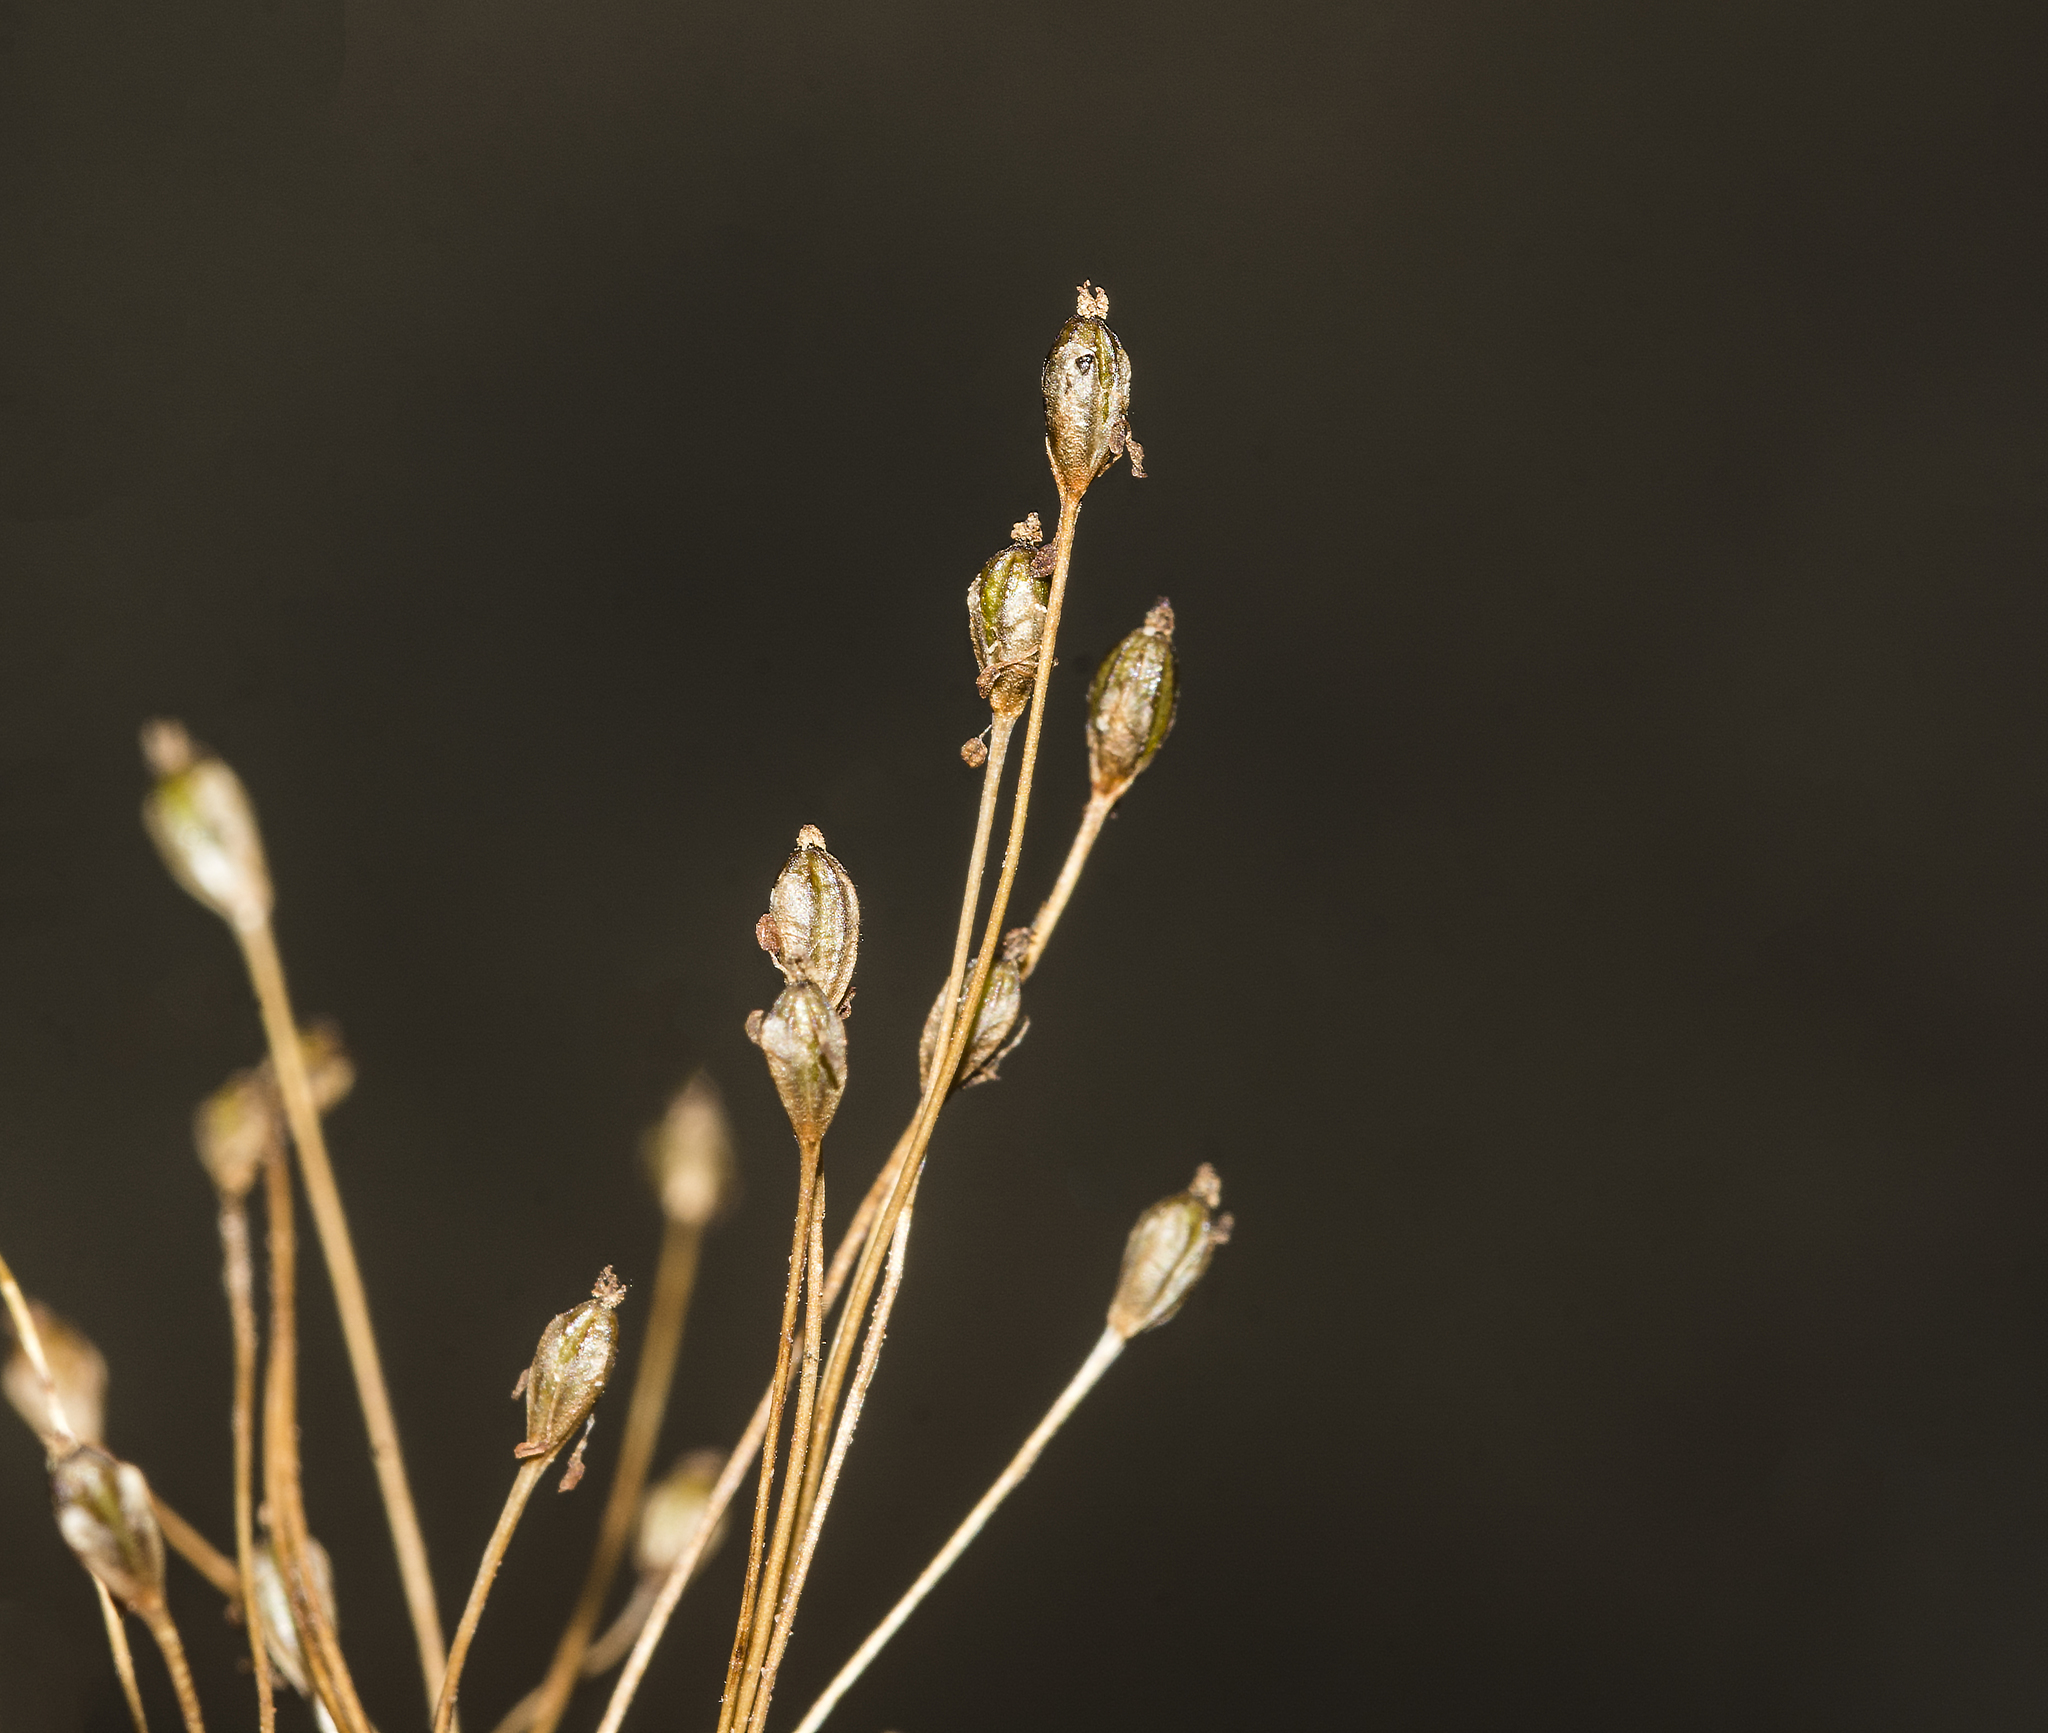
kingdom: Plantae
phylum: Tracheophyta
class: Magnoliopsida
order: Malpighiales
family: Podostemaceae
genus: Dalzellia
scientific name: Dalzellia ceylanica
